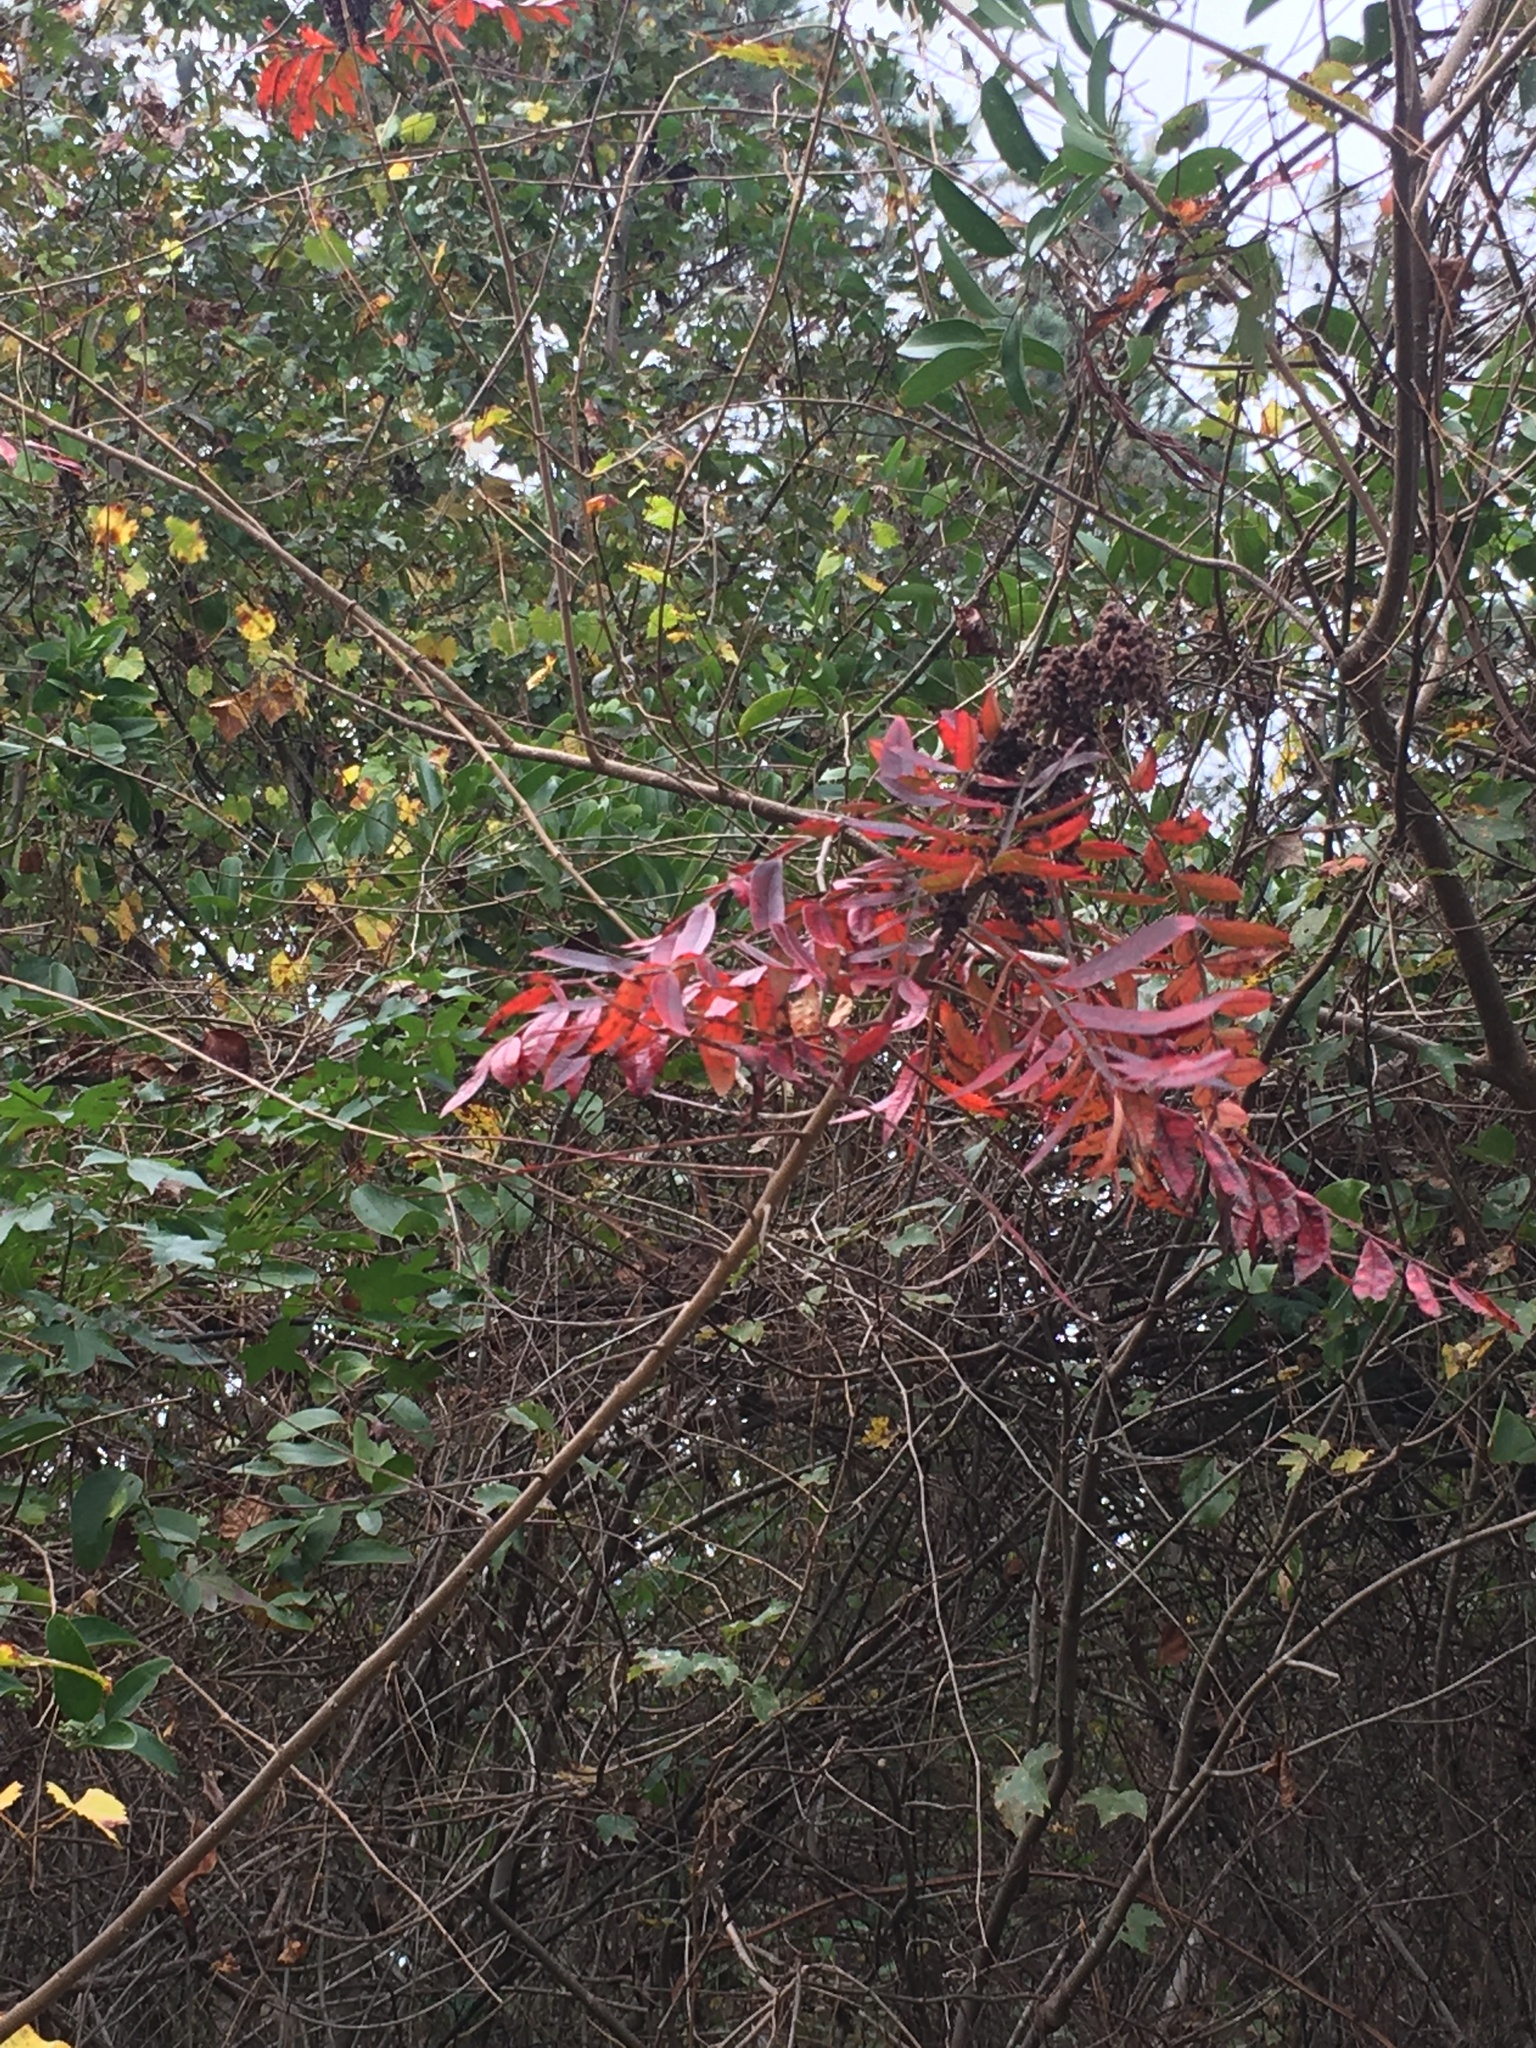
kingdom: Plantae
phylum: Tracheophyta
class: Magnoliopsida
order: Sapindales
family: Anacardiaceae
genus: Rhus
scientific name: Rhus copallina
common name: Shining sumac
